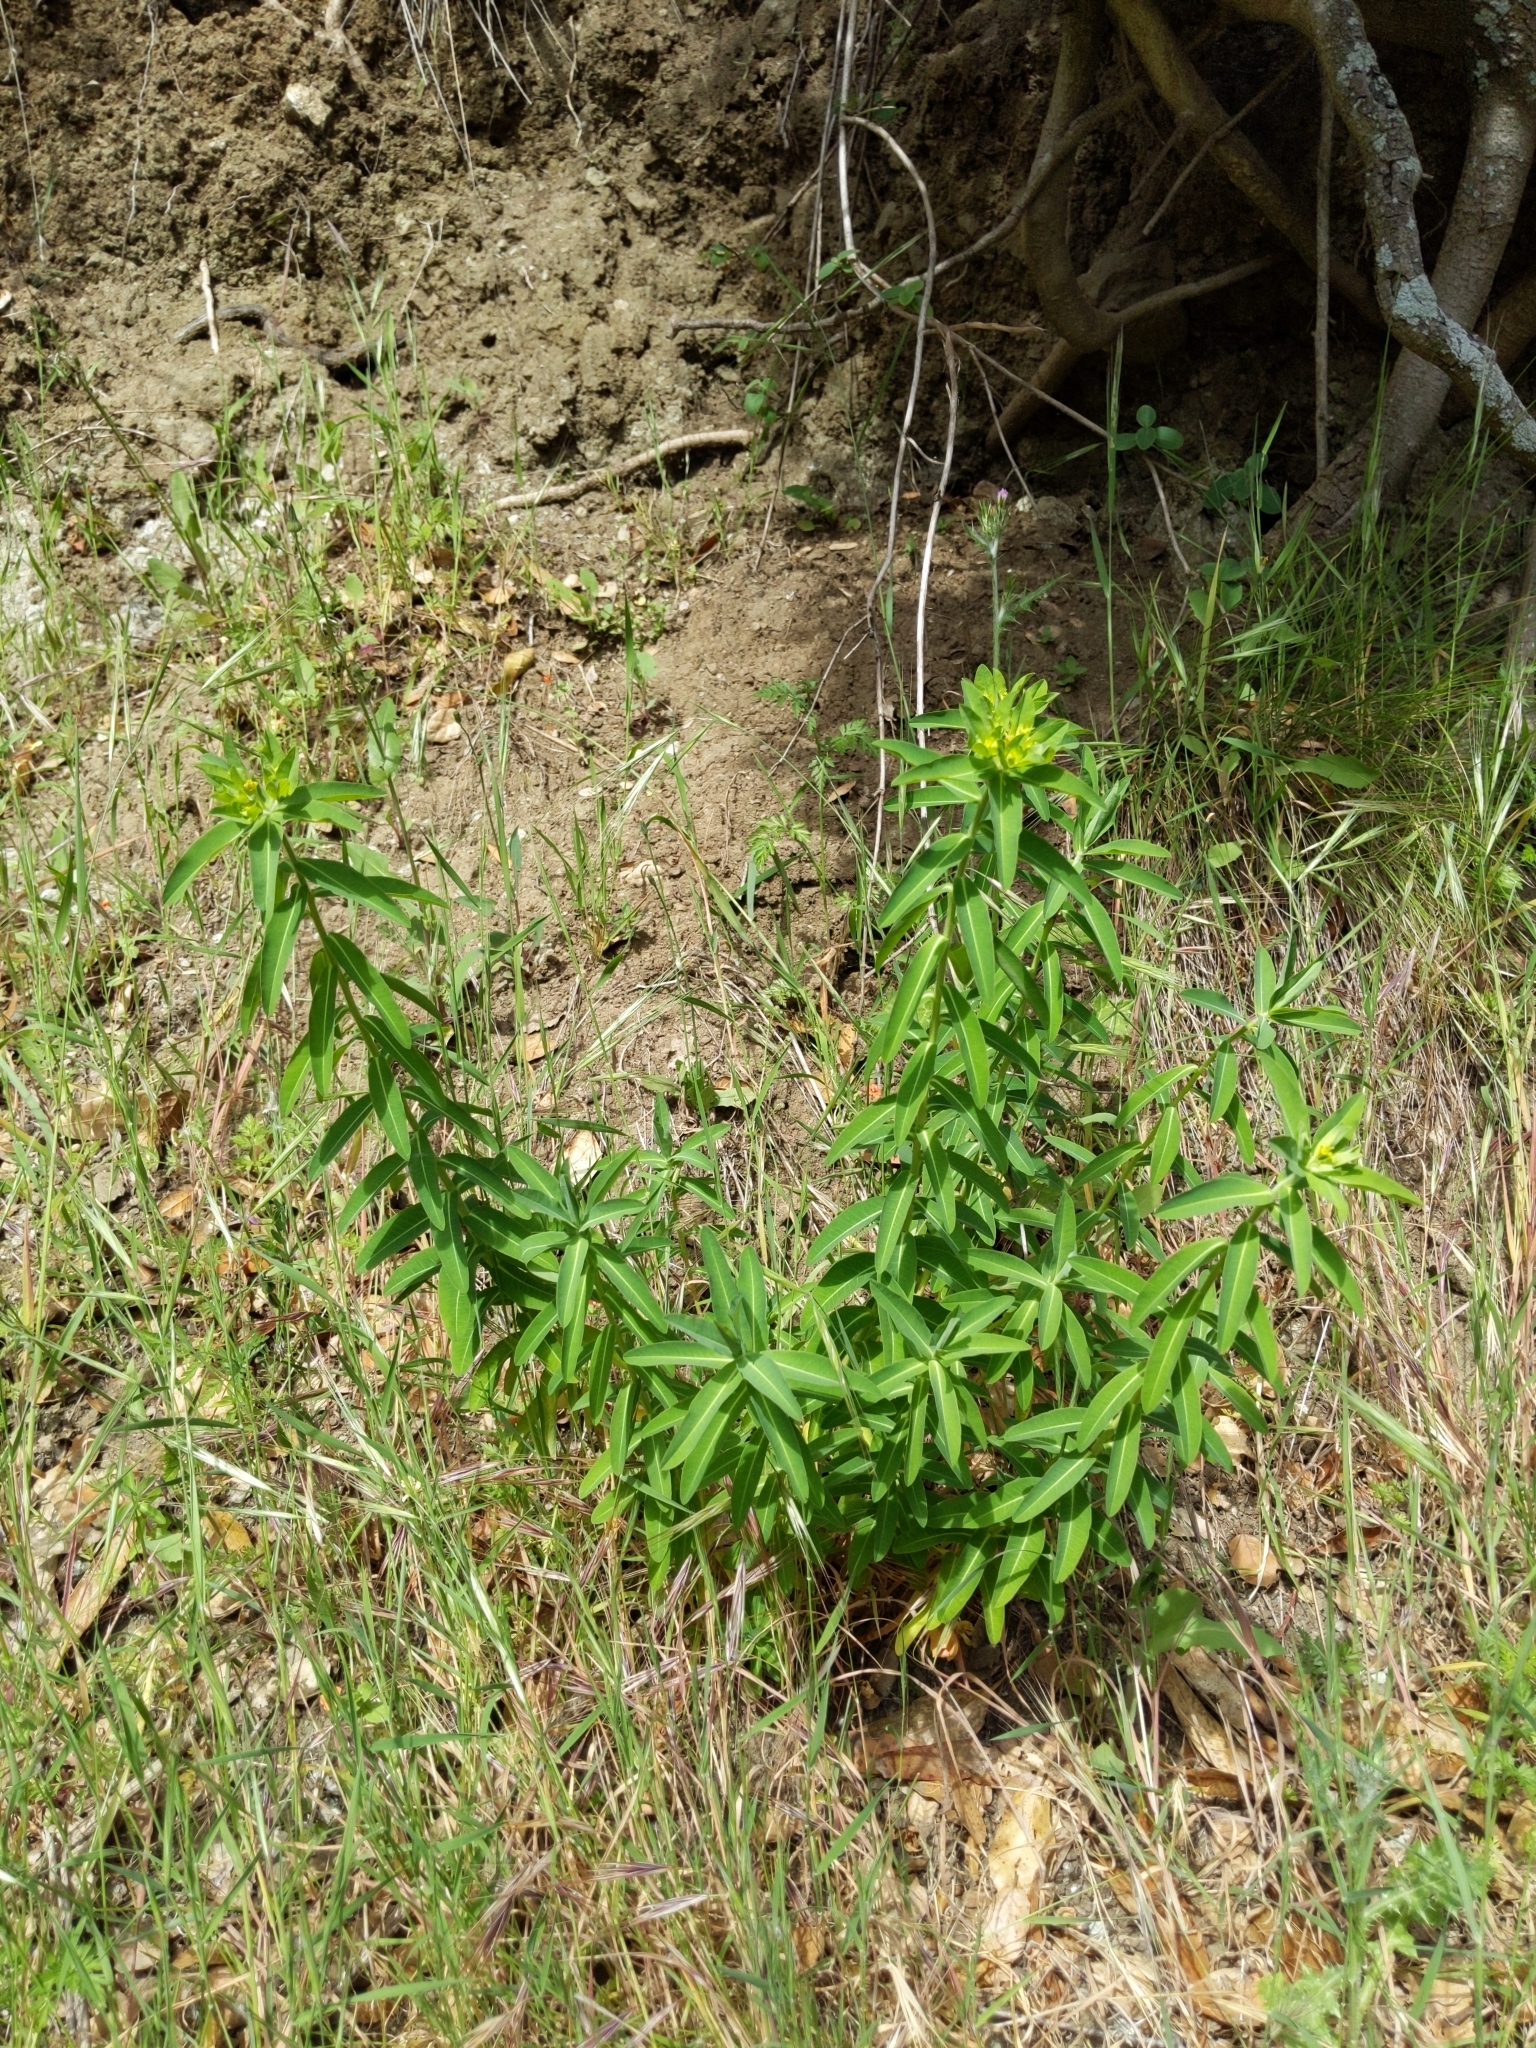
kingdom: Plantae
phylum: Tracheophyta
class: Magnoliopsida
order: Malpighiales
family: Euphorbiaceae
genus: Euphorbia
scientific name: Euphorbia oblongata
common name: Balkan spurge
